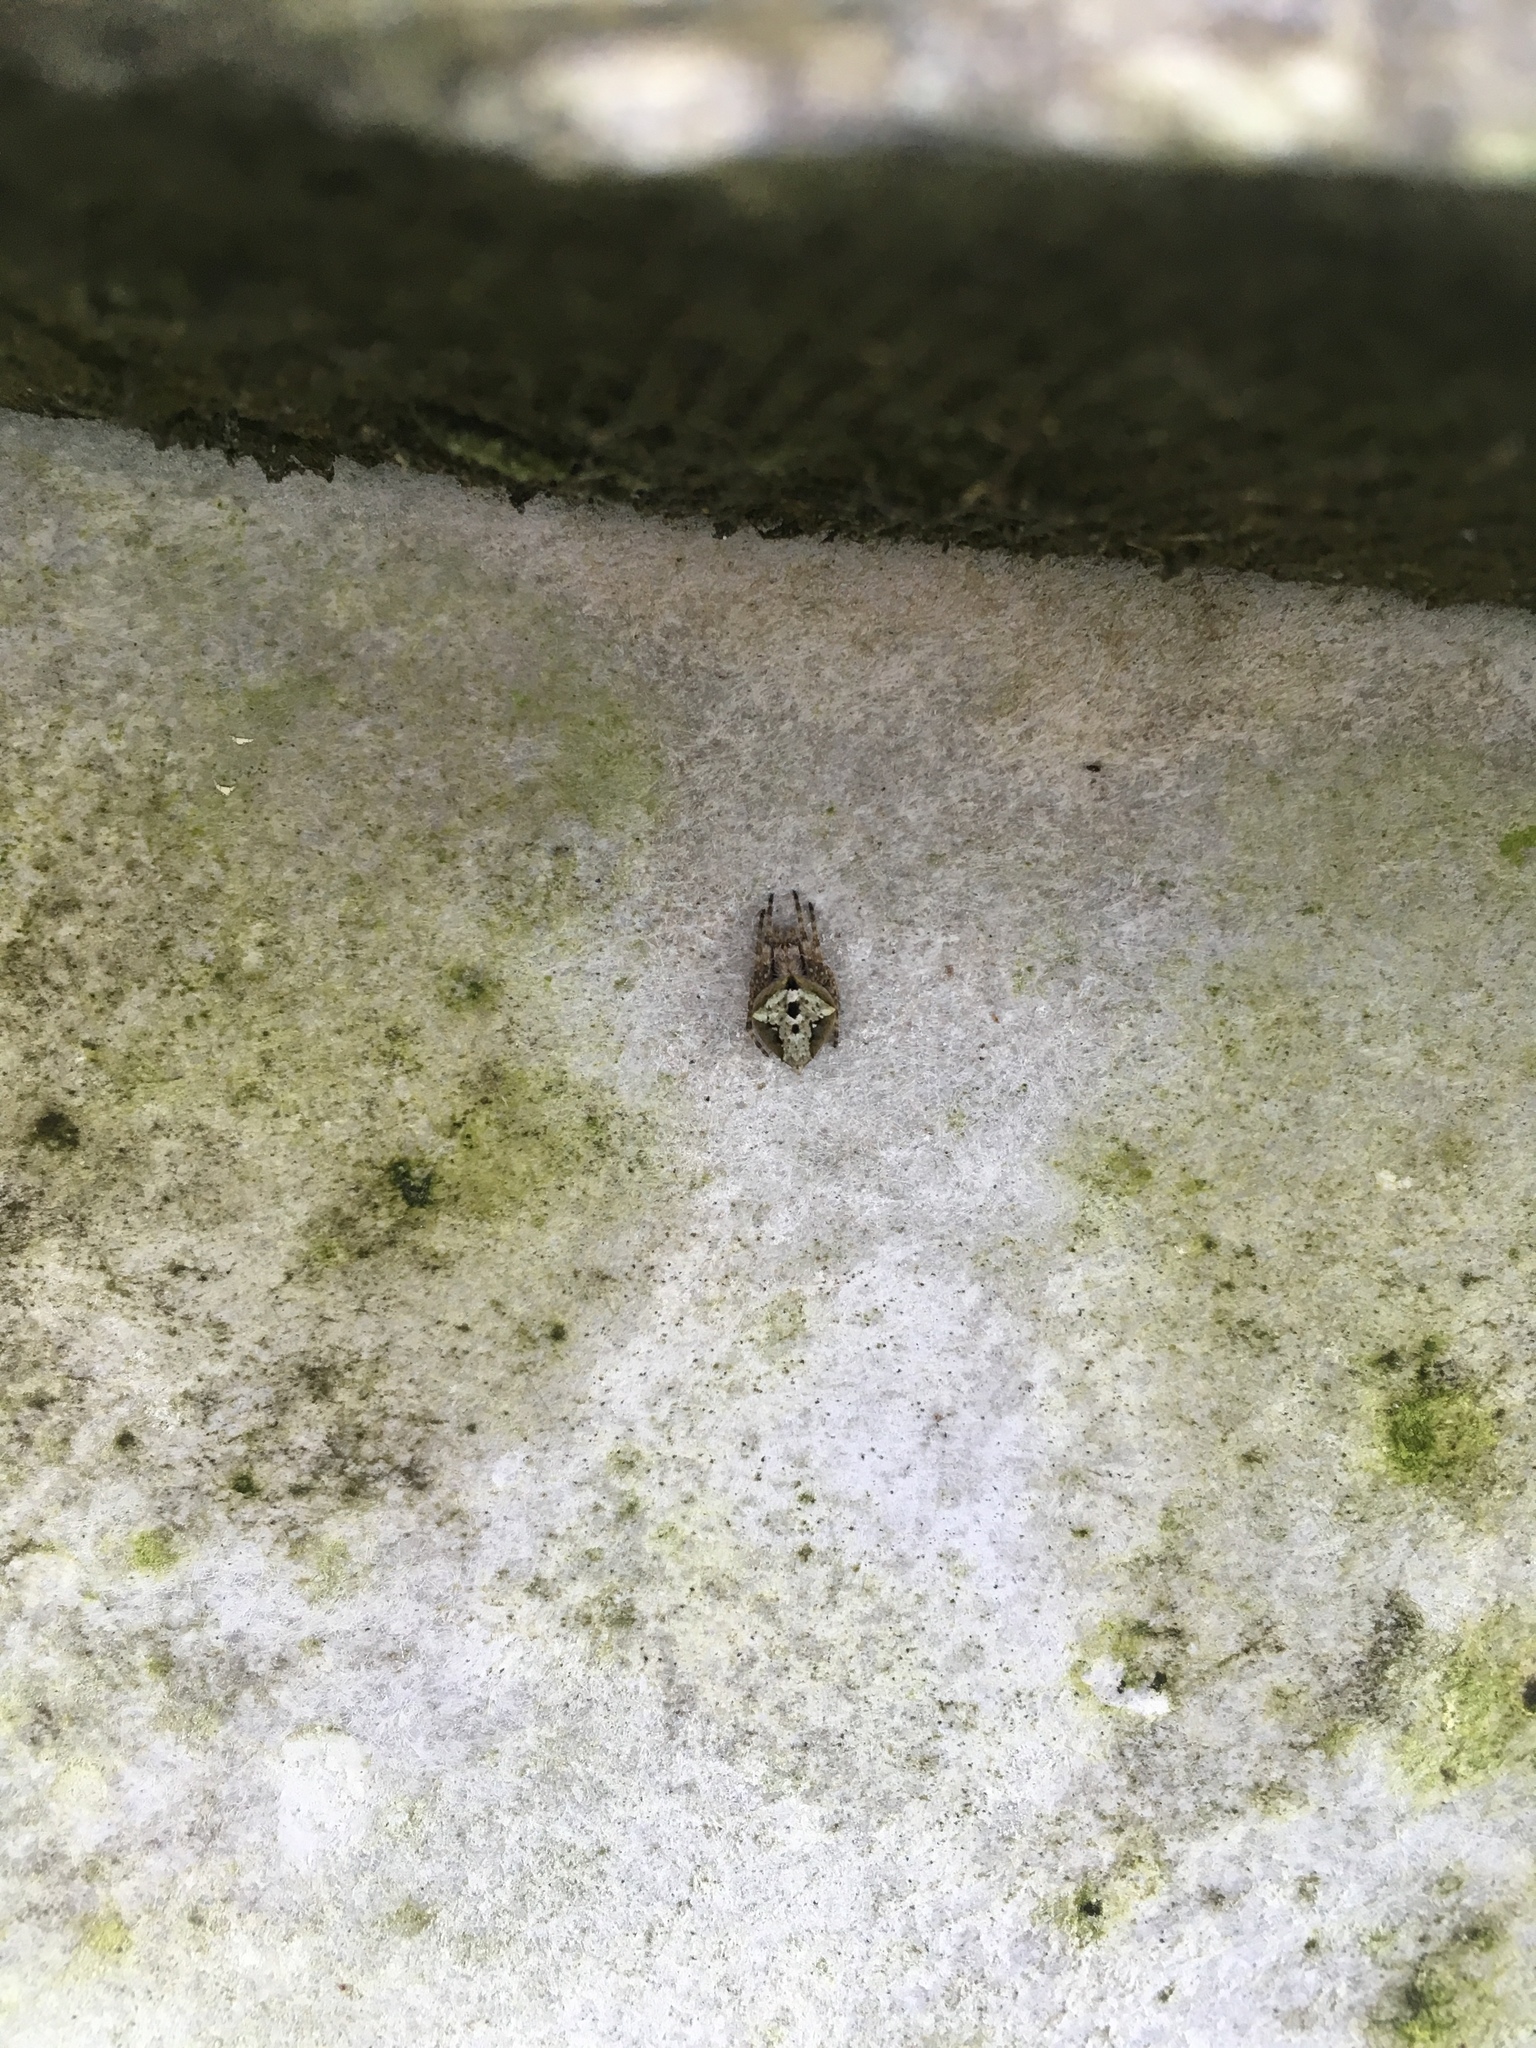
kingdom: Animalia
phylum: Arthropoda
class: Arachnida
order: Araneae
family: Araneidae
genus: Eriophora
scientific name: Eriophora pustulosa
